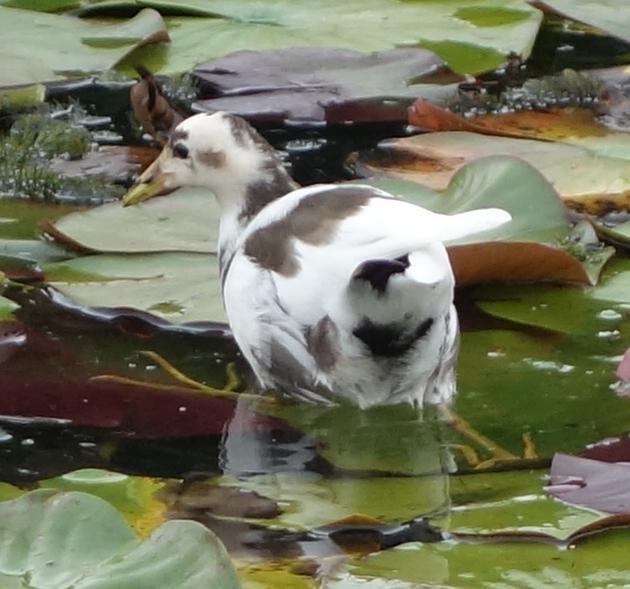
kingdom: Animalia
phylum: Chordata
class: Aves
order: Gruiformes
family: Rallidae
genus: Gallinula
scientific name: Gallinula chloropus
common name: Common moorhen
